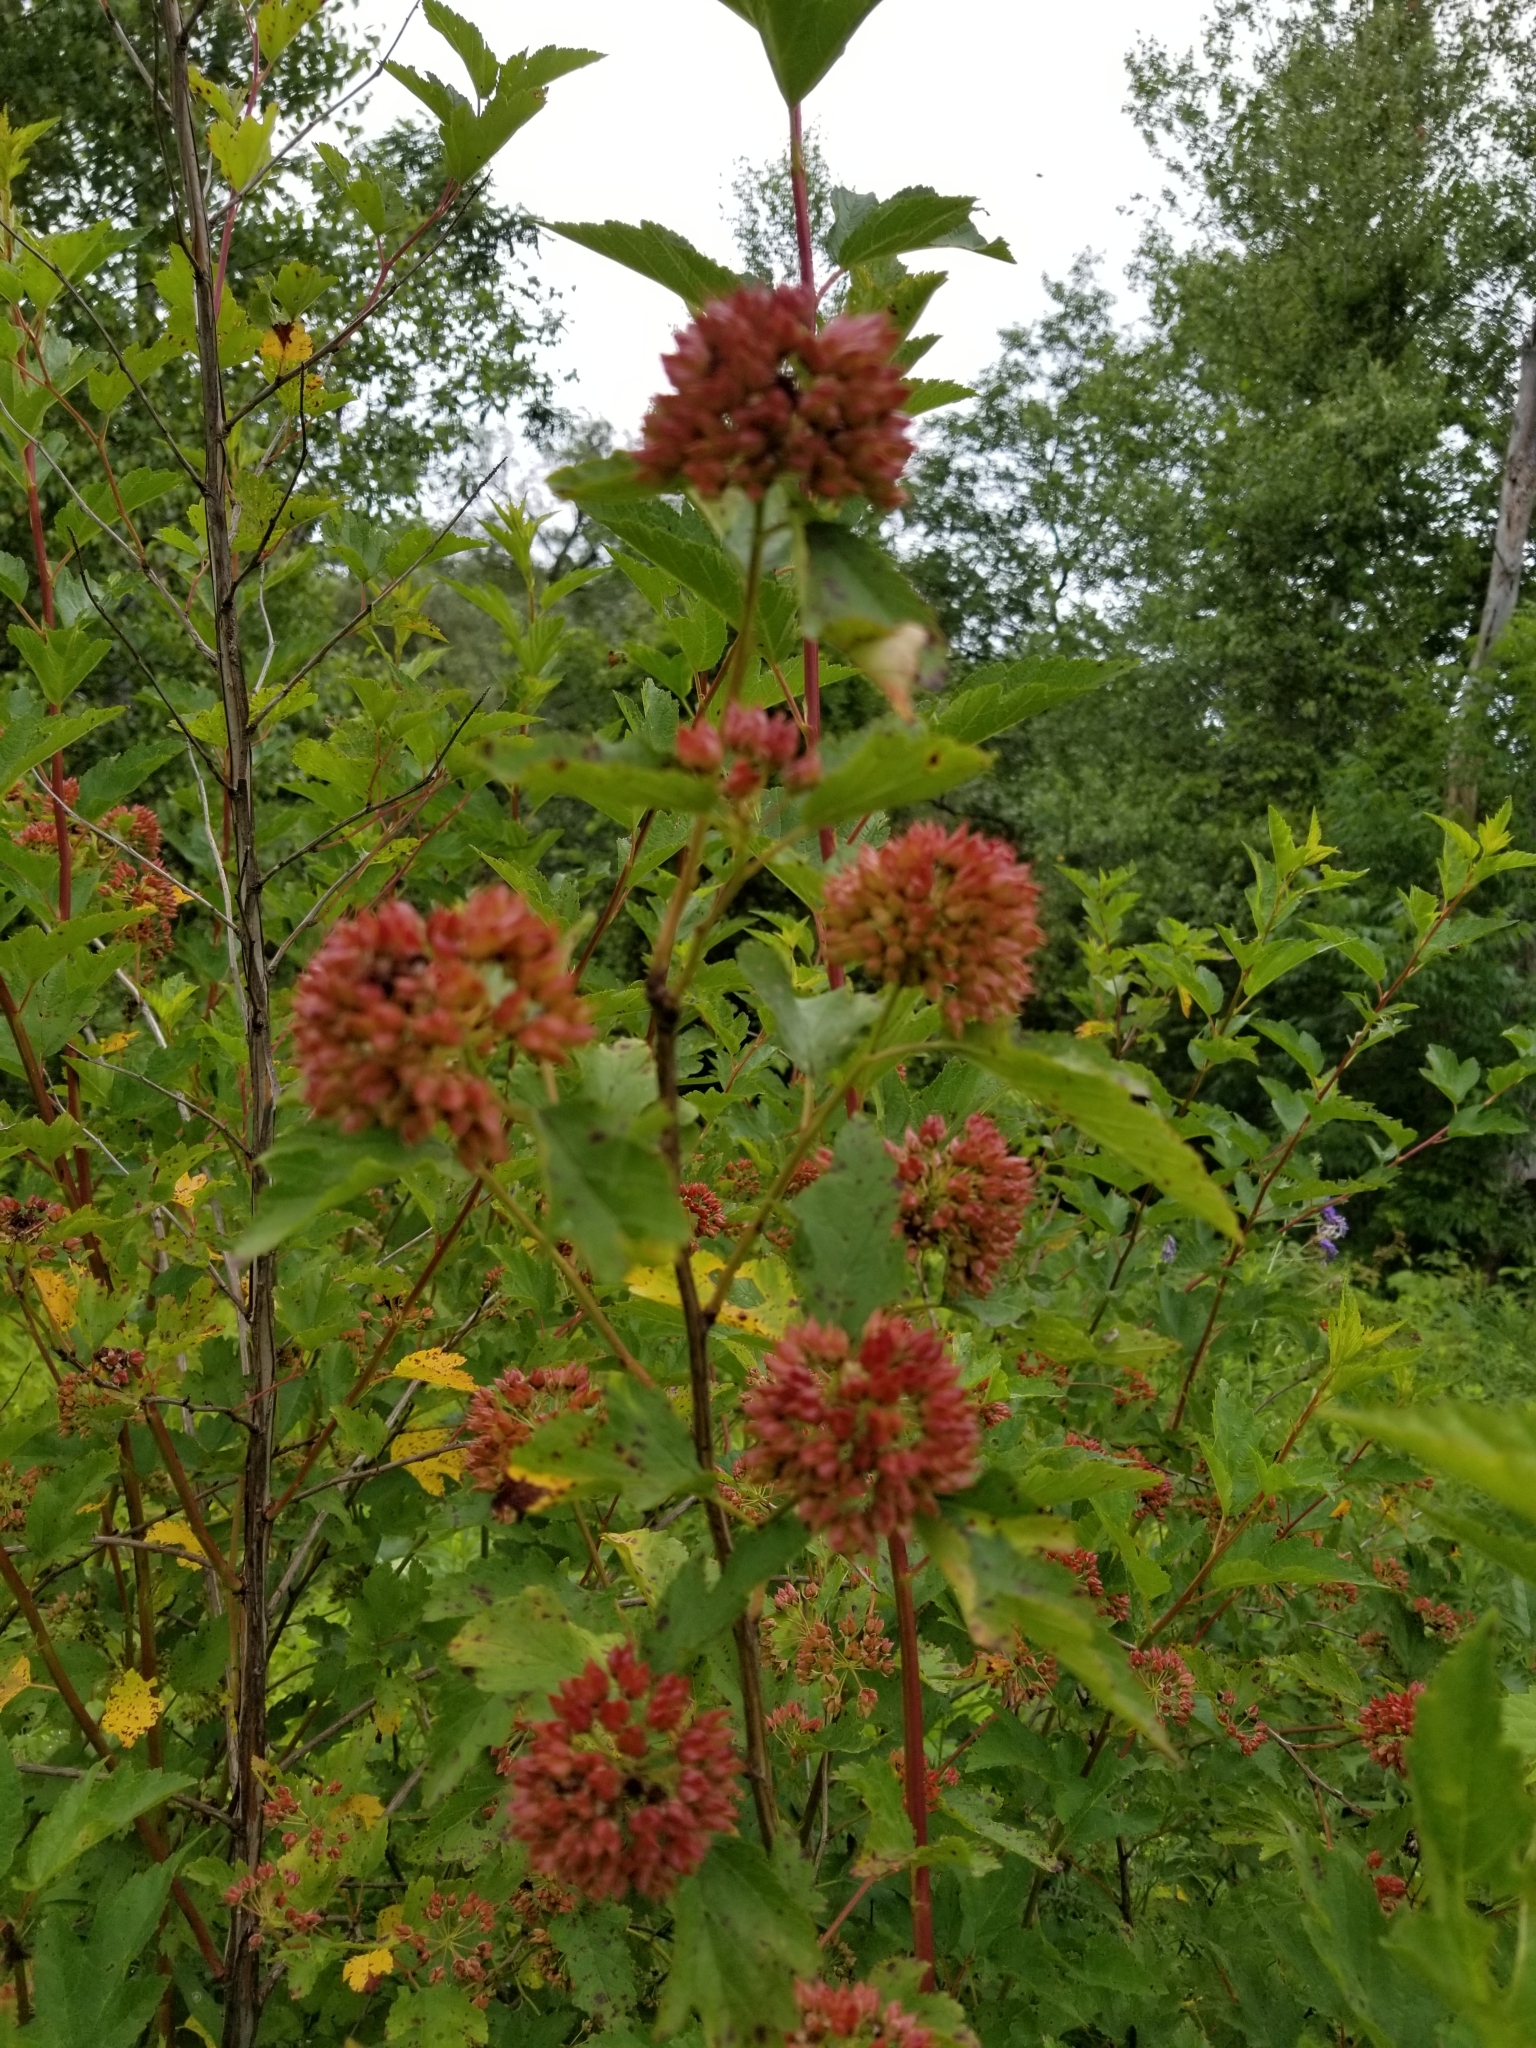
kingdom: Plantae
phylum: Tracheophyta
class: Magnoliopsida
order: Rosales
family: Rosaceae
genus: Physocarpus
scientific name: Physocarpus opulifolius
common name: Ninebark
